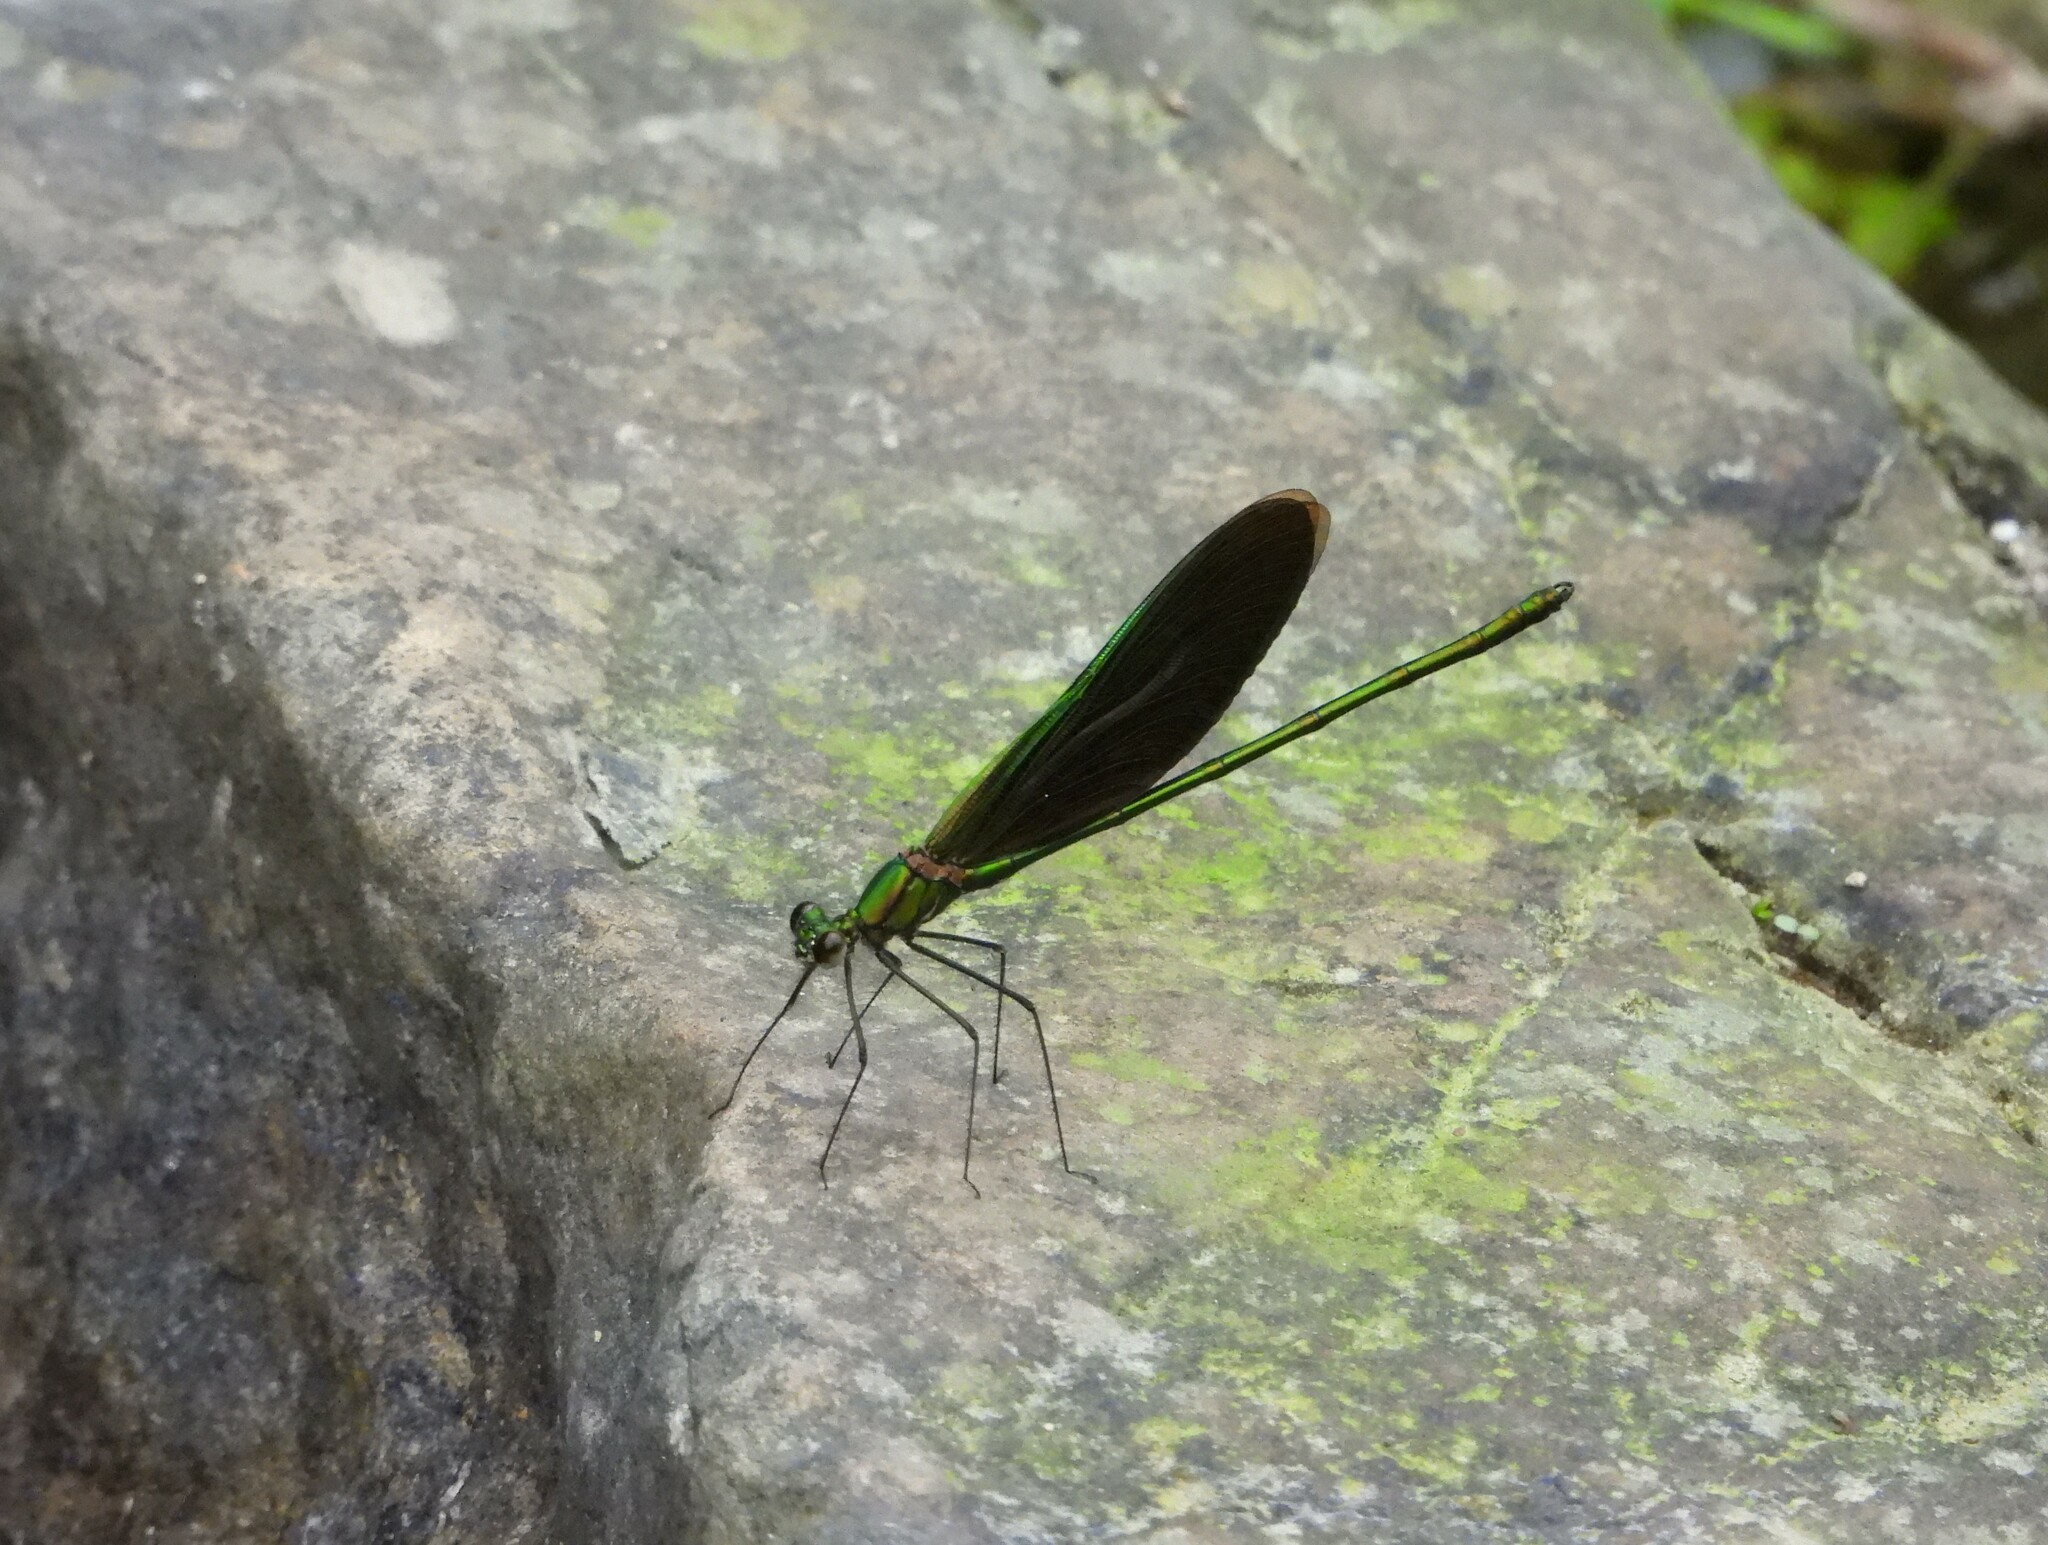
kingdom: Animalia
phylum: Arthropoda
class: Insecta
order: Odonata
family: Calopterygidae
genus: Neurobasis
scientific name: Neurobasis chinensis
